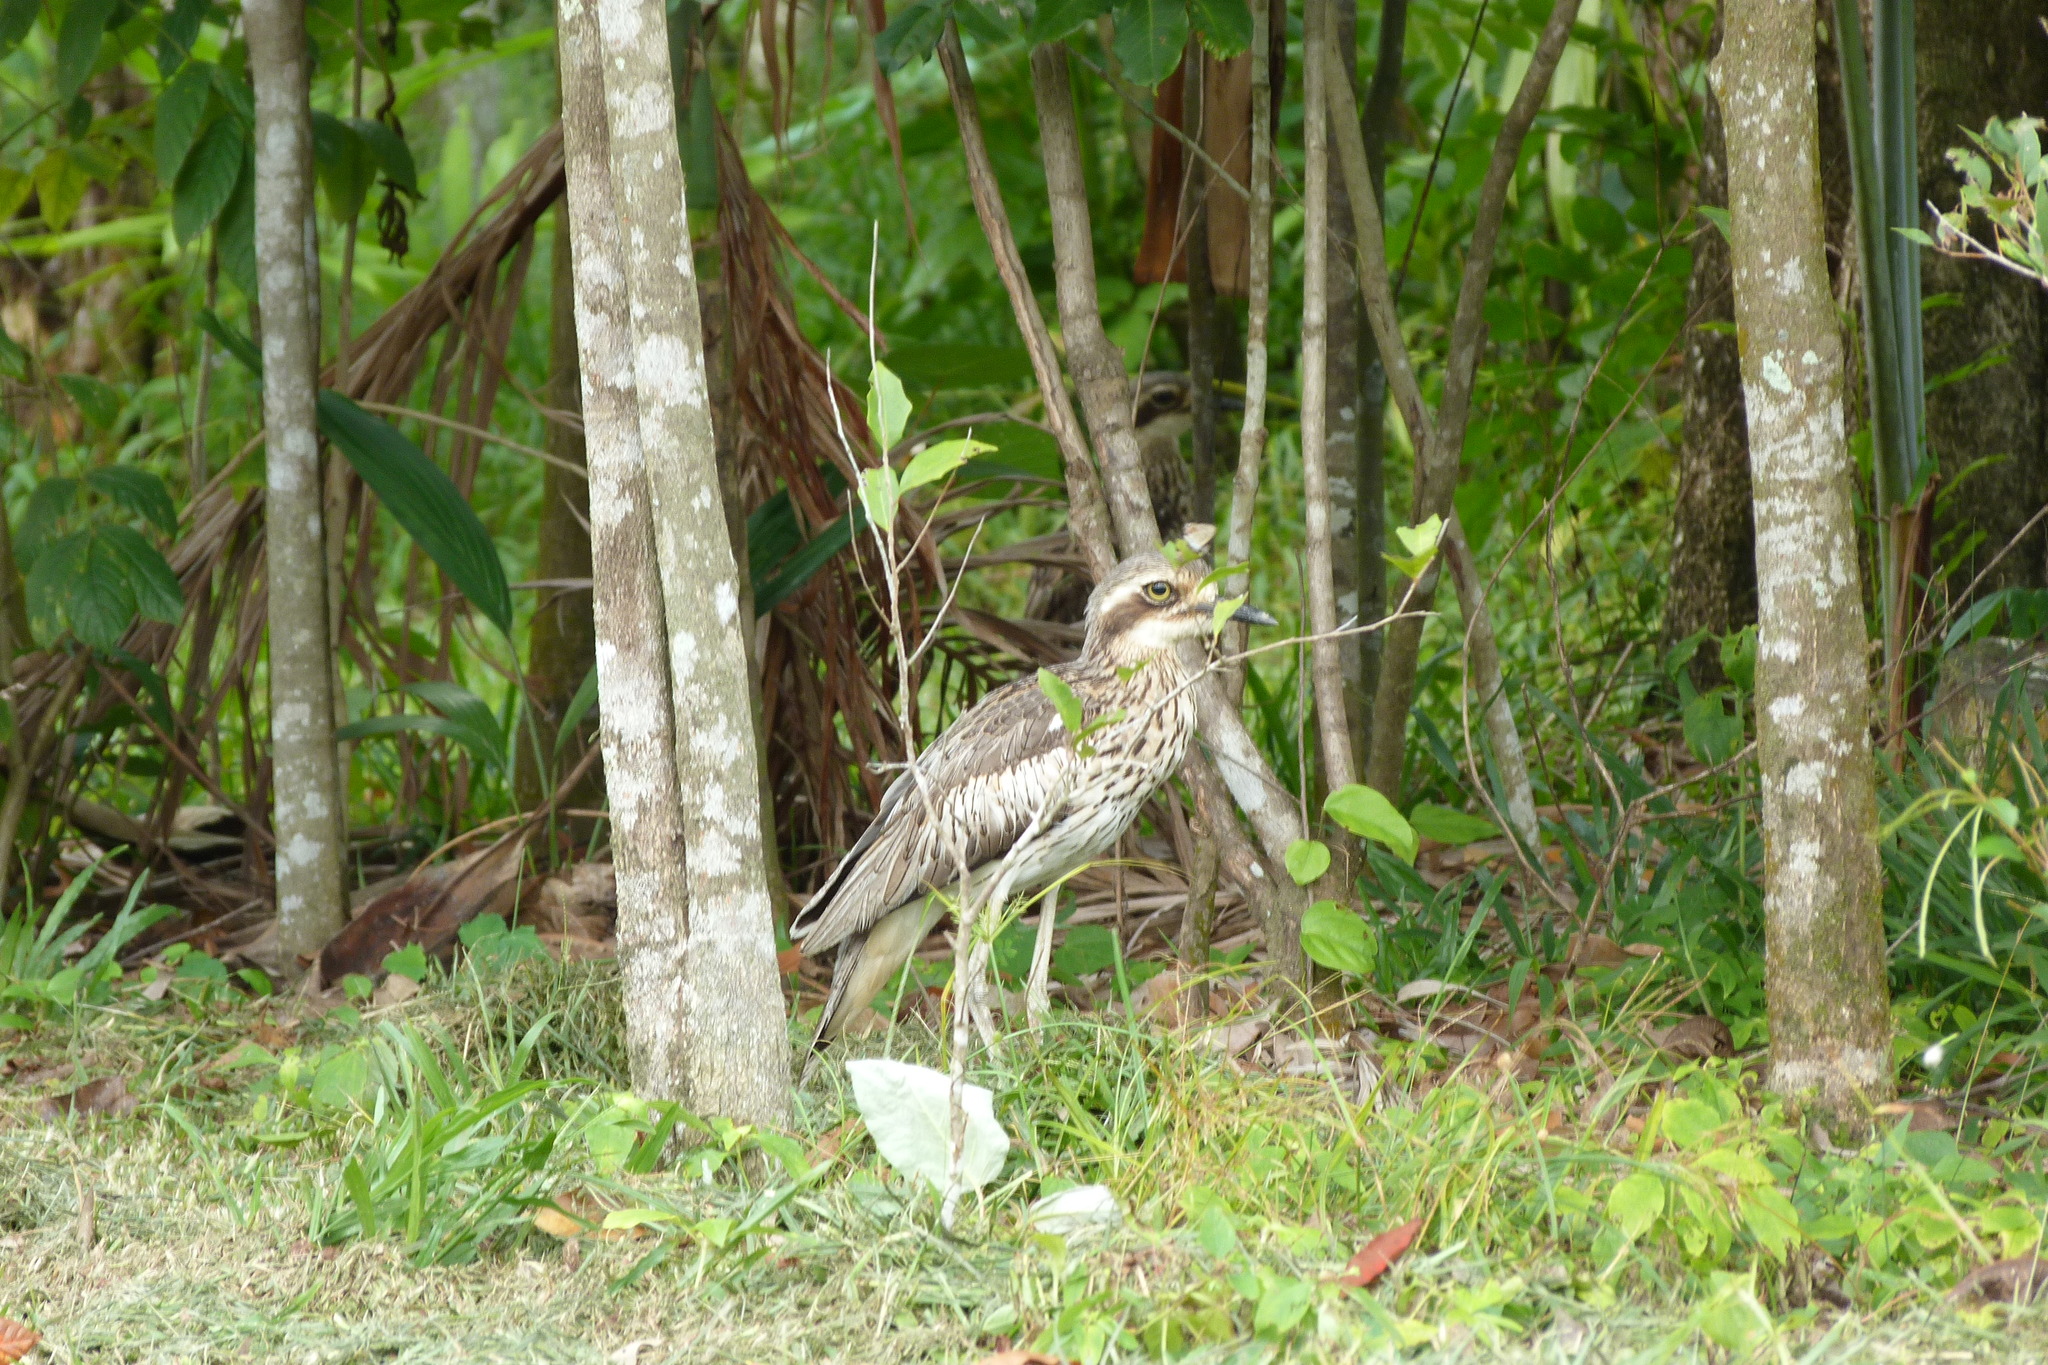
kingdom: Animalia
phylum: Chordata
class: Aves
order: Charadriiformes
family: Burhinidae
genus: Burhinus
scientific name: Burhinus grallarius
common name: Bush stone-curlew
